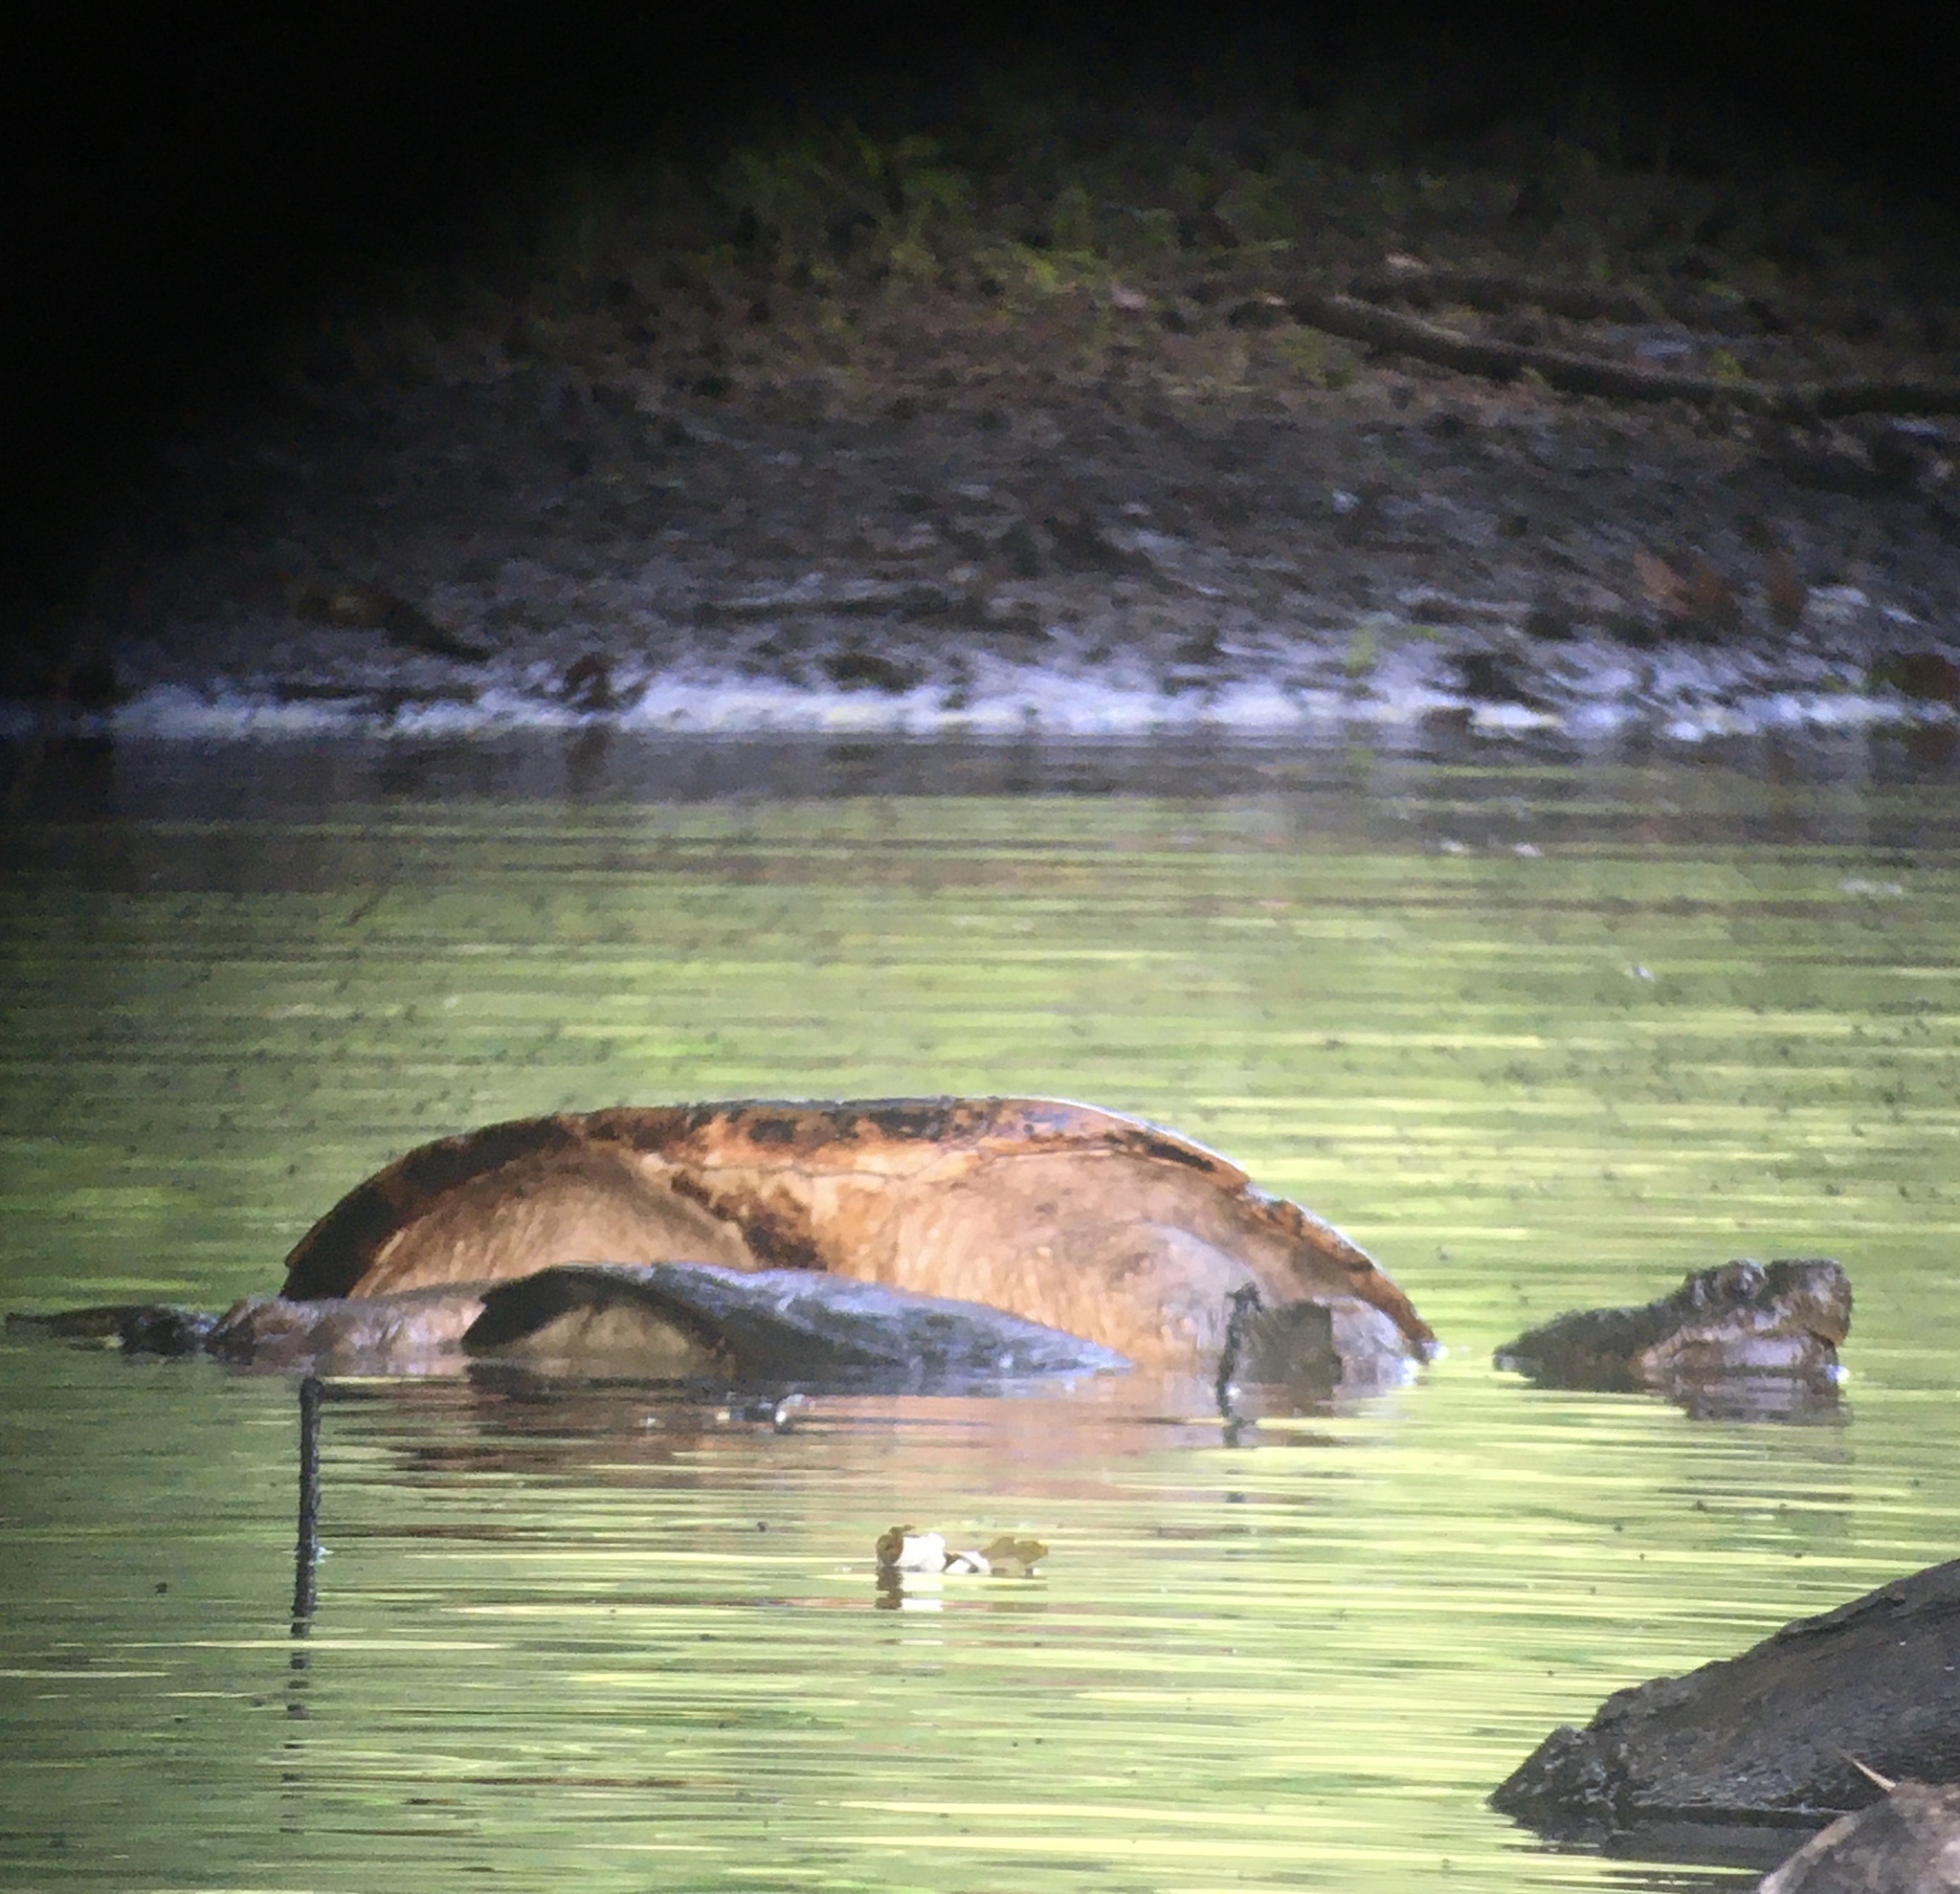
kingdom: Animalia
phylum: Chordata
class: Testudines
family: Chelydridae
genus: Chelydra
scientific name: Chelydra serpentina
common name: Common snapping turtle
